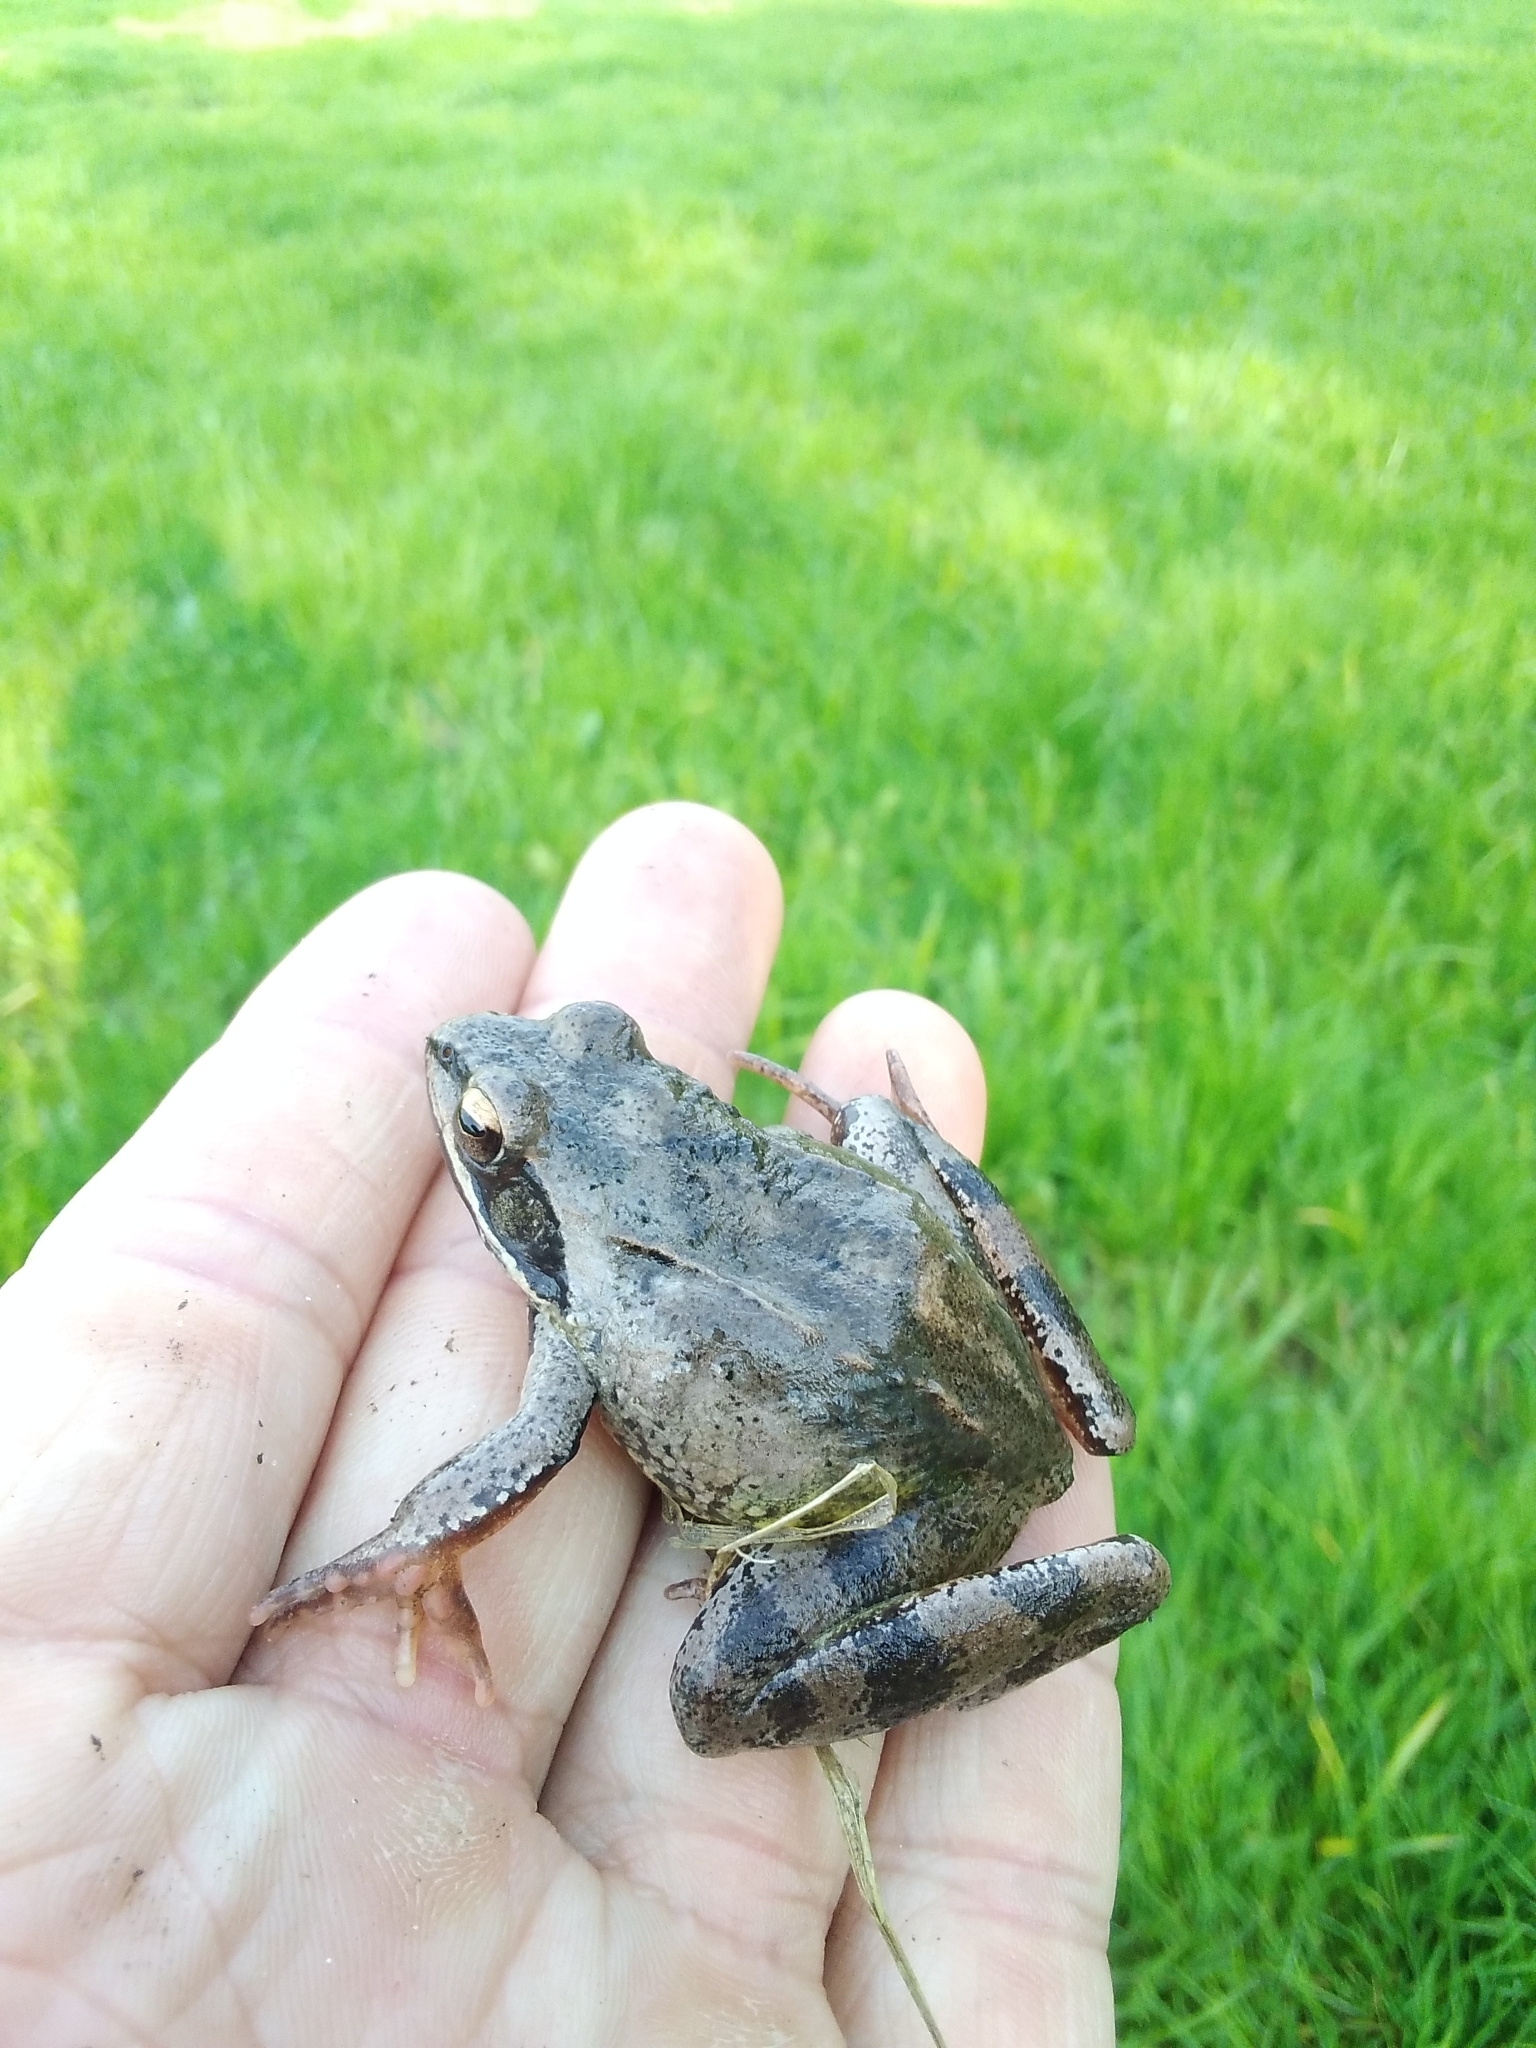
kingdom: Animalia
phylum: Chordata
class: Amphibia
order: Anura
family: Ranidae
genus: Rana
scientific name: Rana dalmatina
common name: Agile frog
